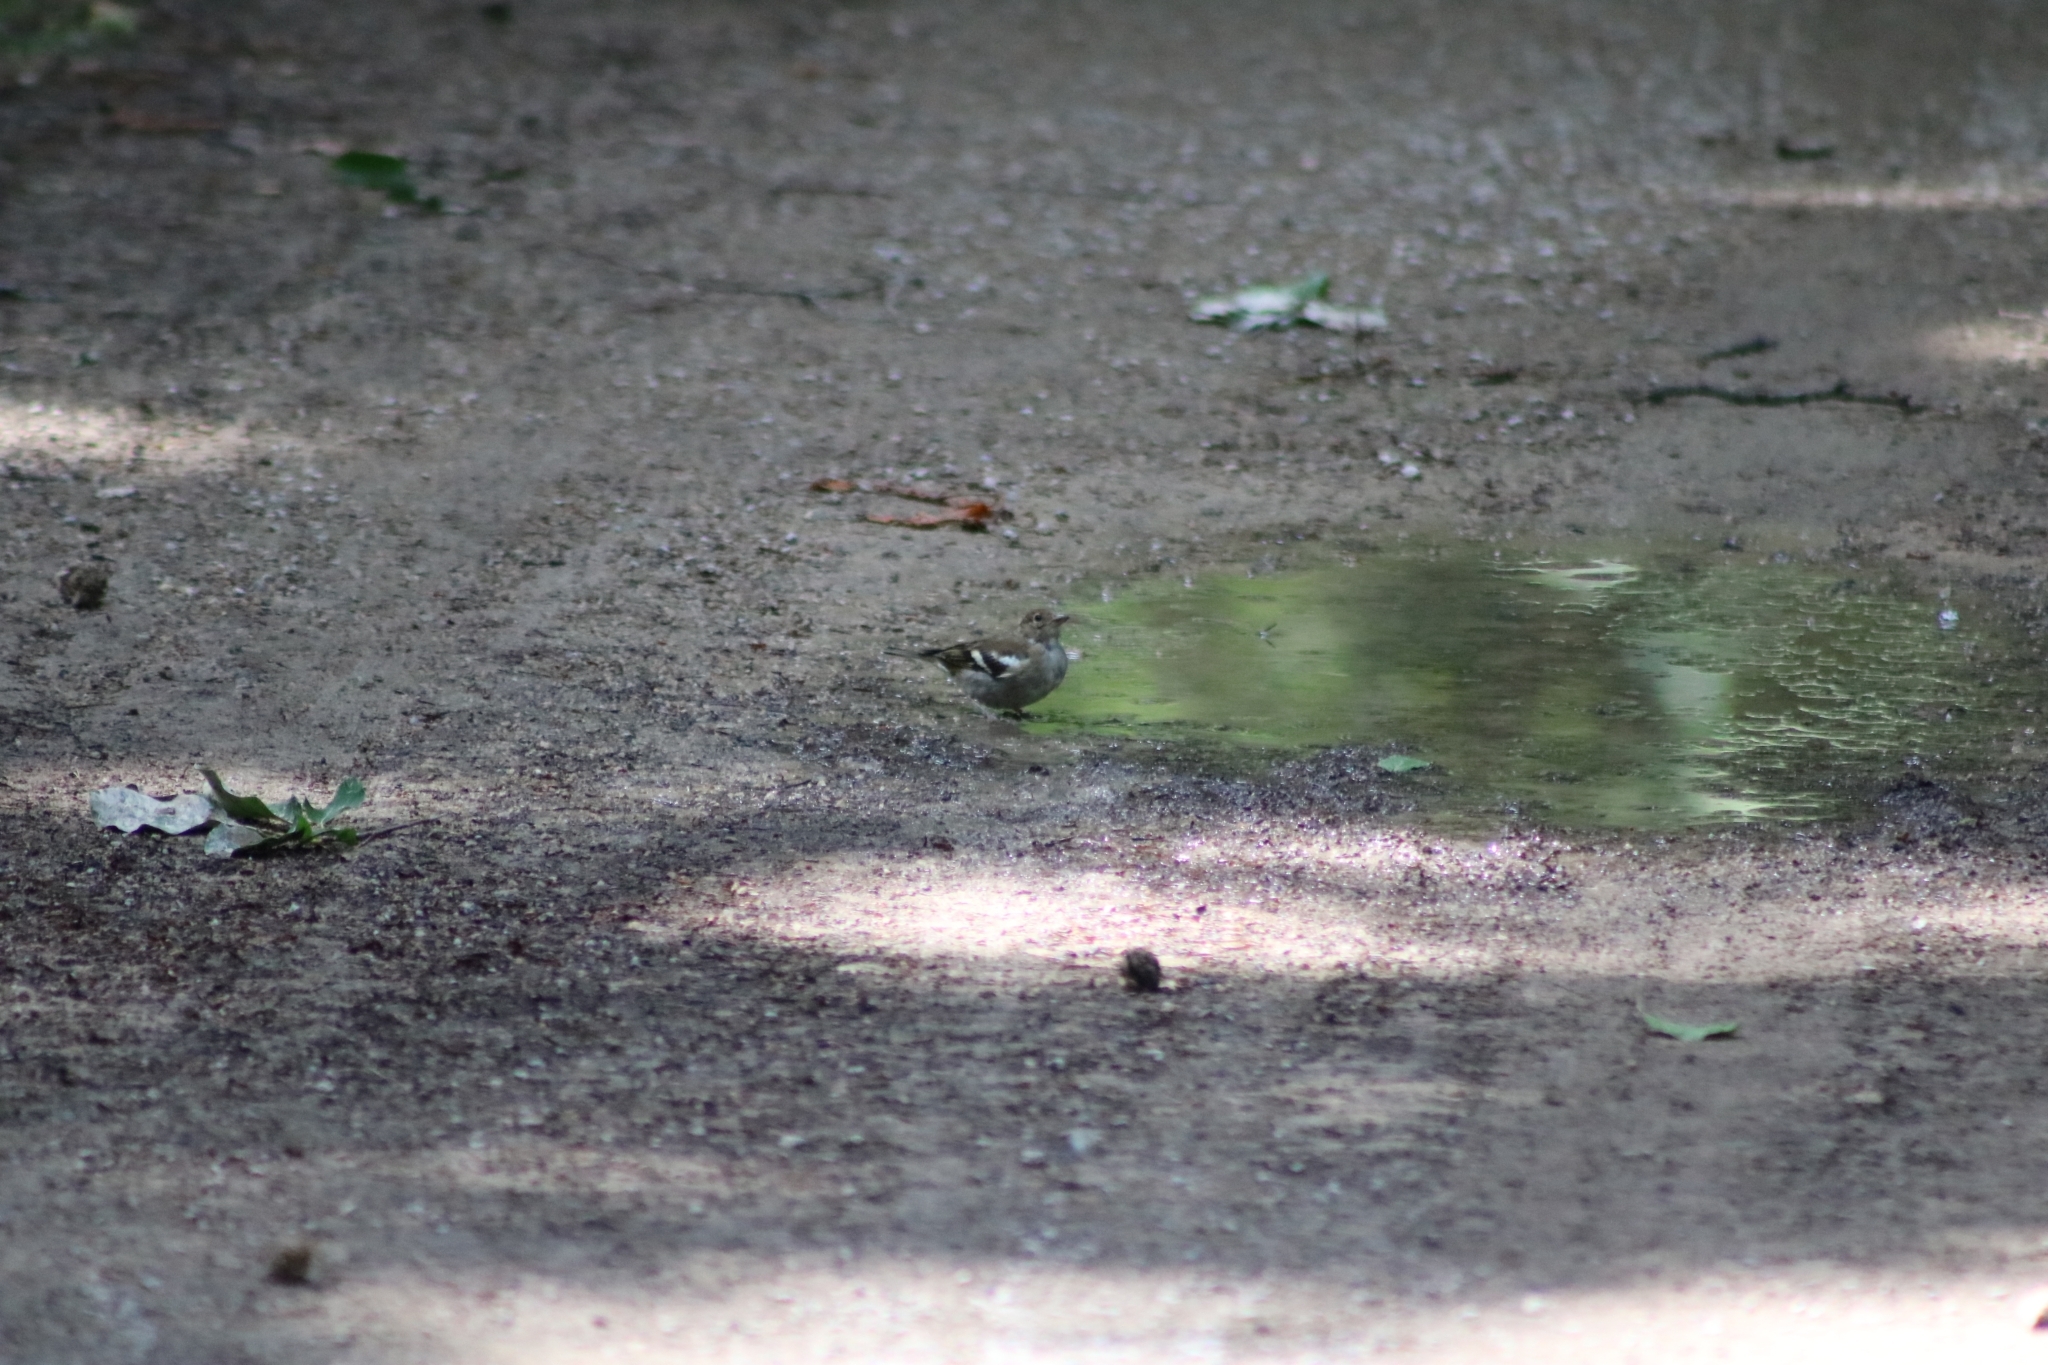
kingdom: Animalia
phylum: Chordata
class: Aves
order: Passeriformes
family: Fringillidae
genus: Fringilla
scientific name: Fringilla coelebs
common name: Common chaffinch
